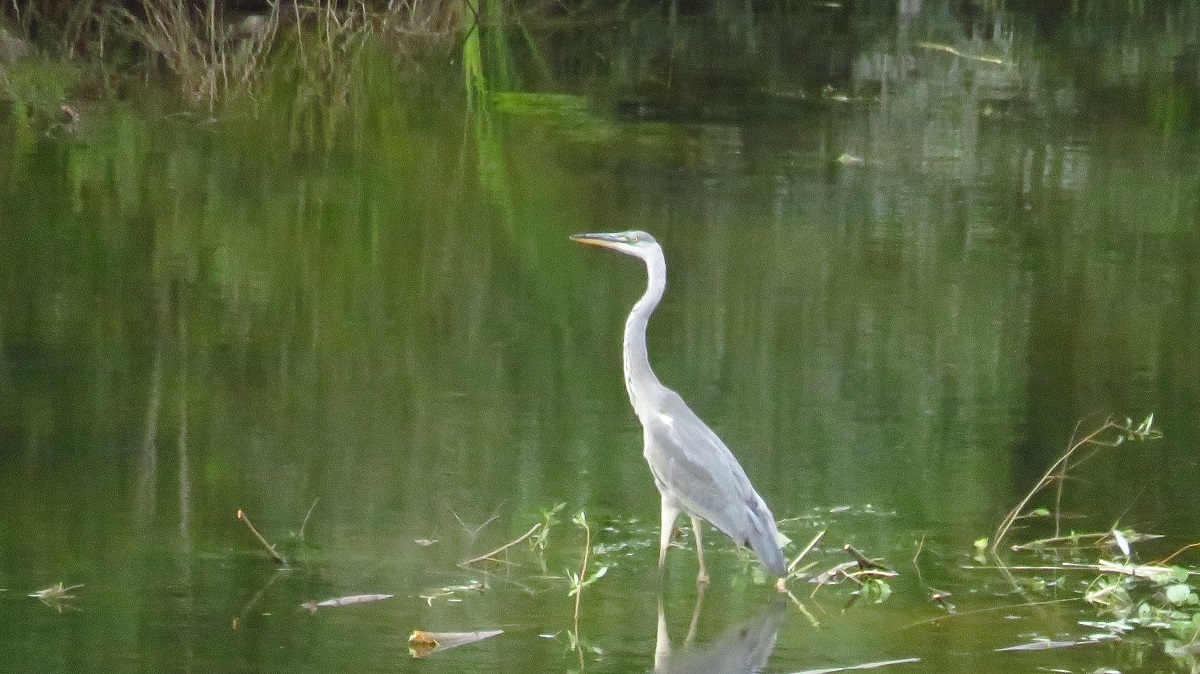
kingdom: Animalia
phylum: Chordata
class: Aves
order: Pelecaniformes
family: Ardeidae
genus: Ardea
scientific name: Ardea cinerea
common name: Grey heron
